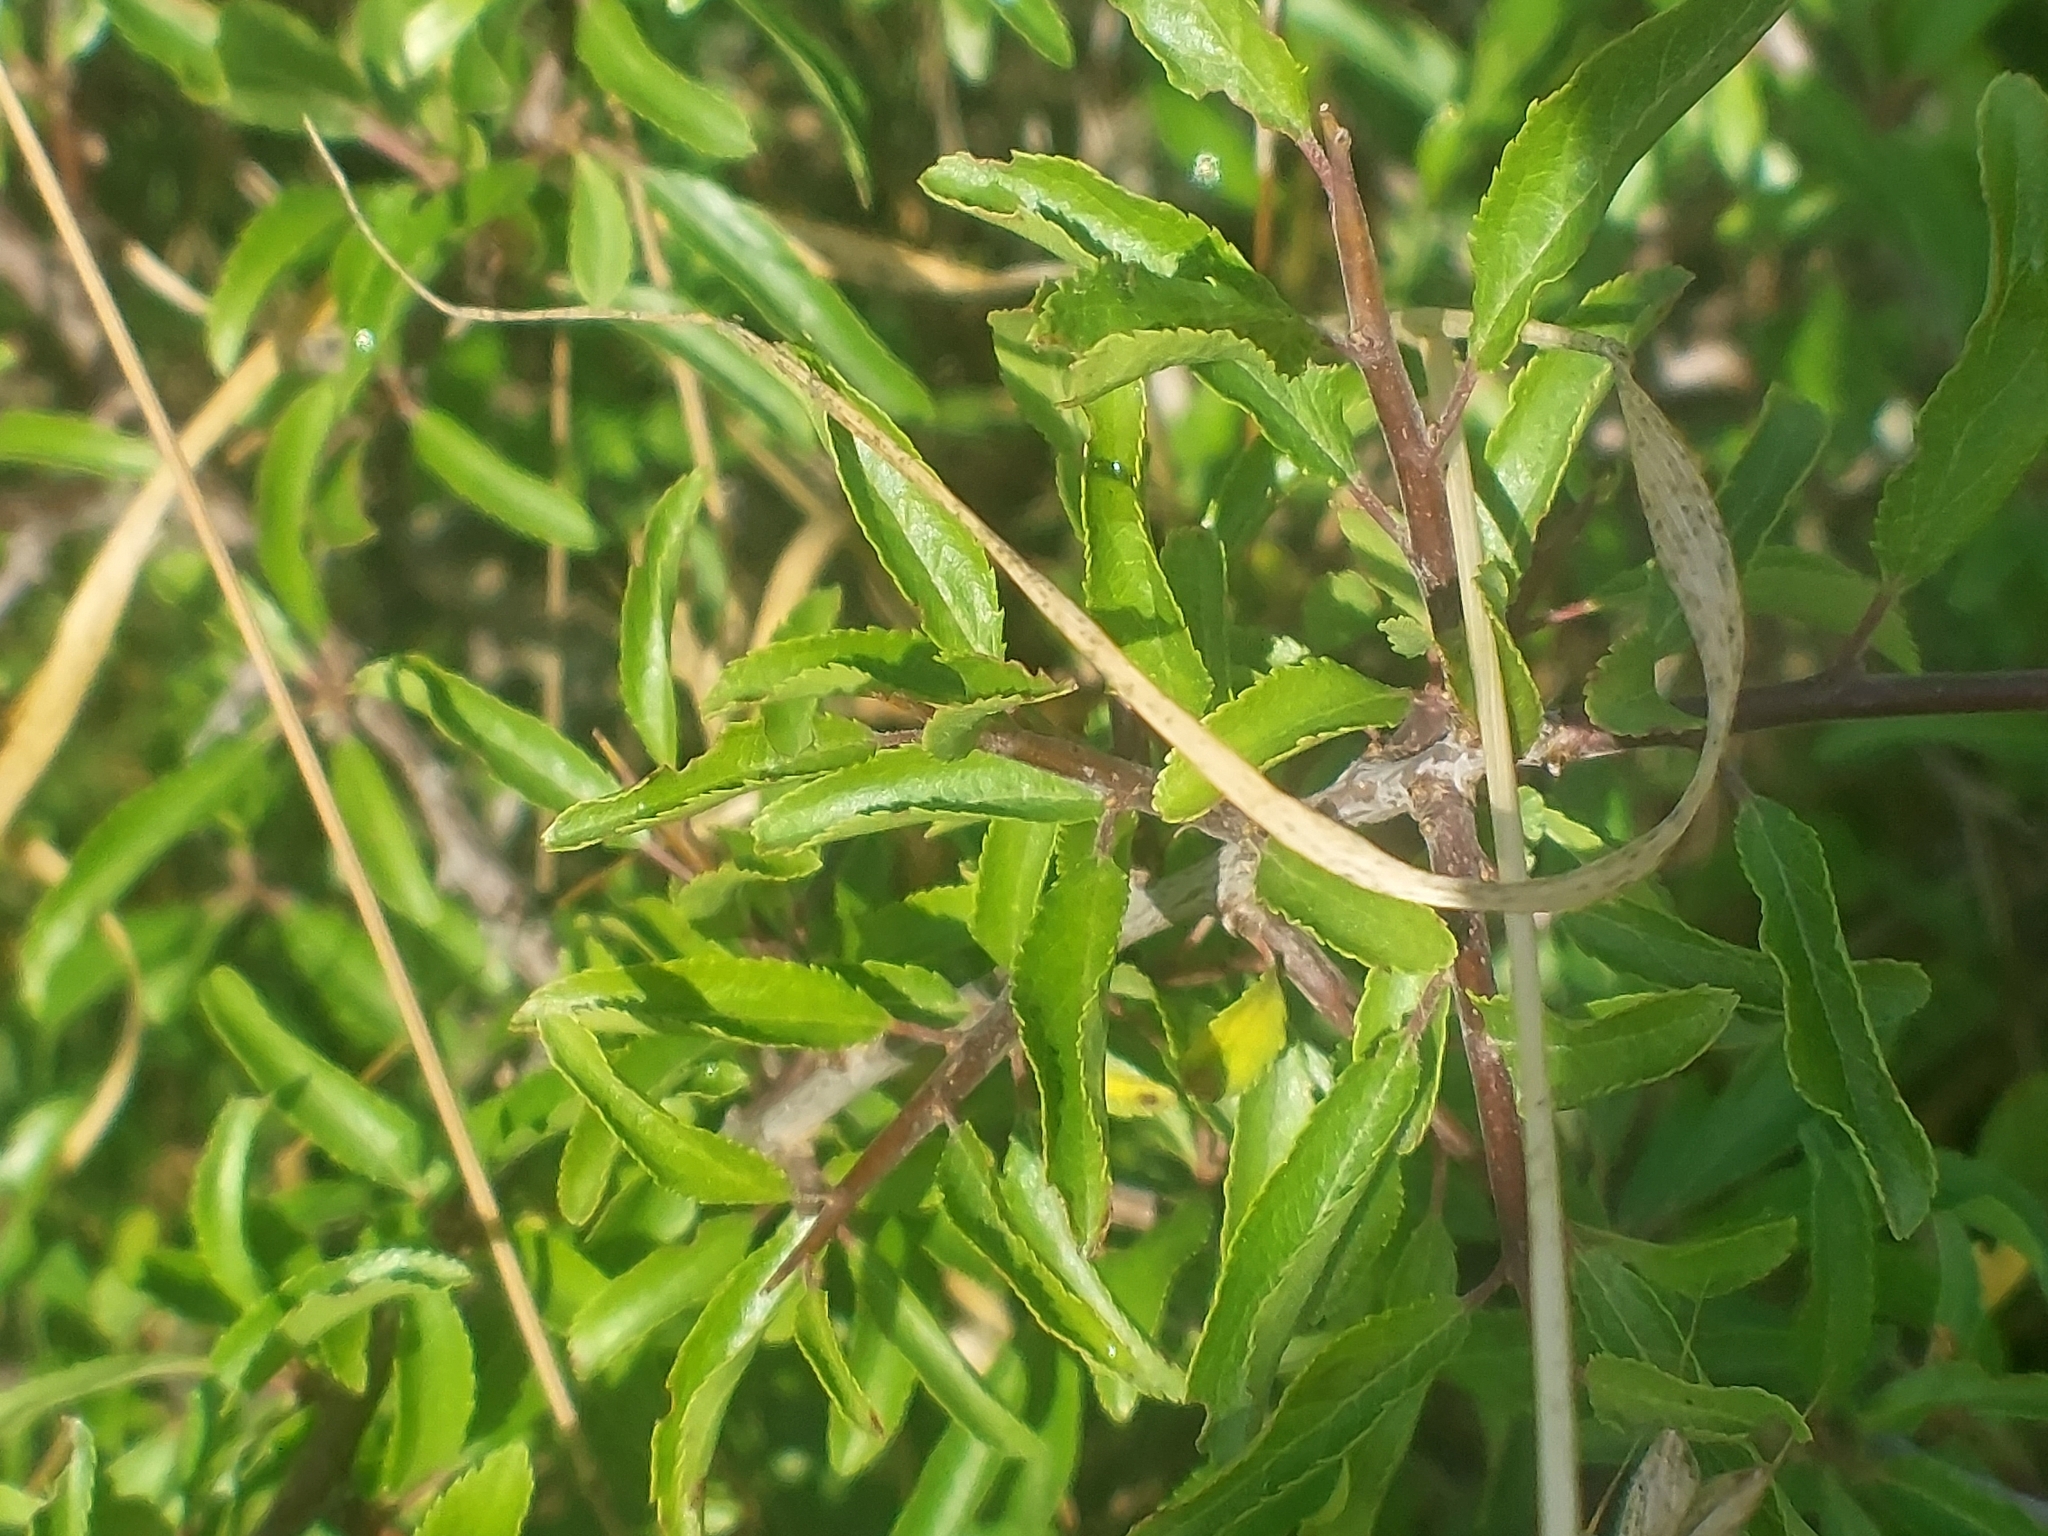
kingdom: Plantae
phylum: Tracheophyta
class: Magnoliopsida
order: Rosales
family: Rosaceae
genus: Prunus
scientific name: Prunus spinosa
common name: Blackthorn
